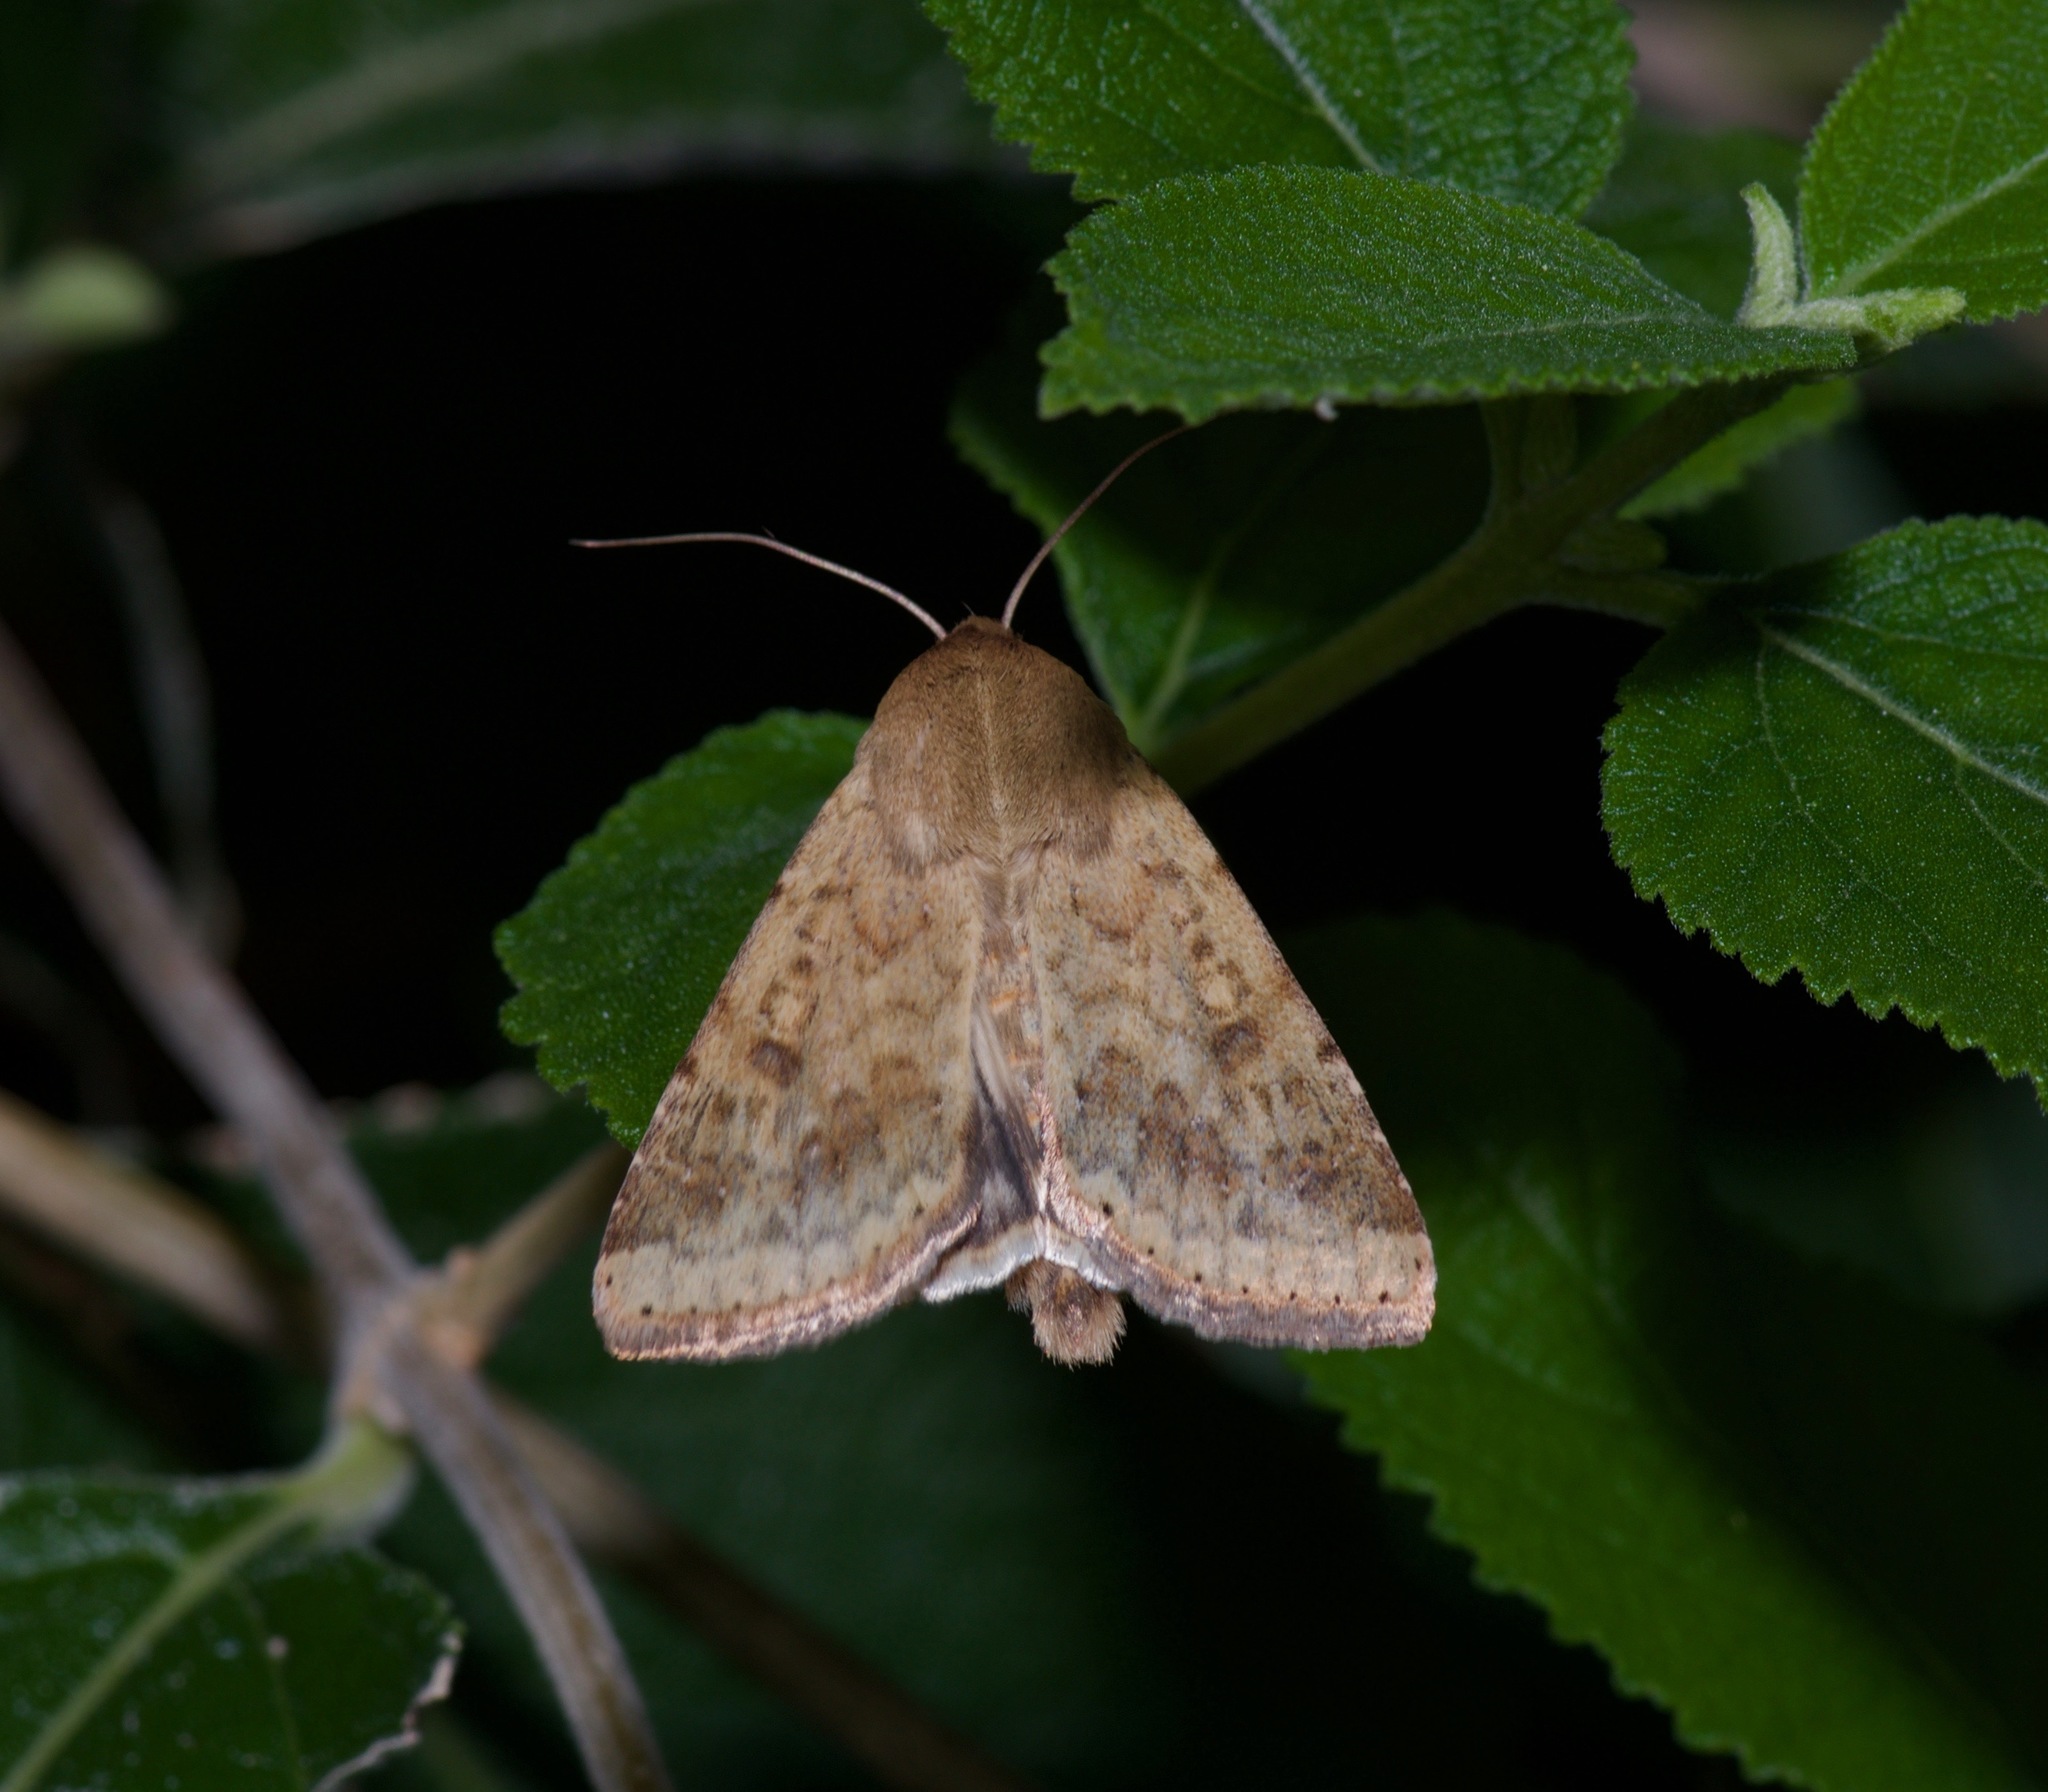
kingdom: Animalia
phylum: Arthropoda
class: Insecta
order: Lepidoptera
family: Noctuidae
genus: Helicoverpa
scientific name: Helicoverpa zea
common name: Bollworm
